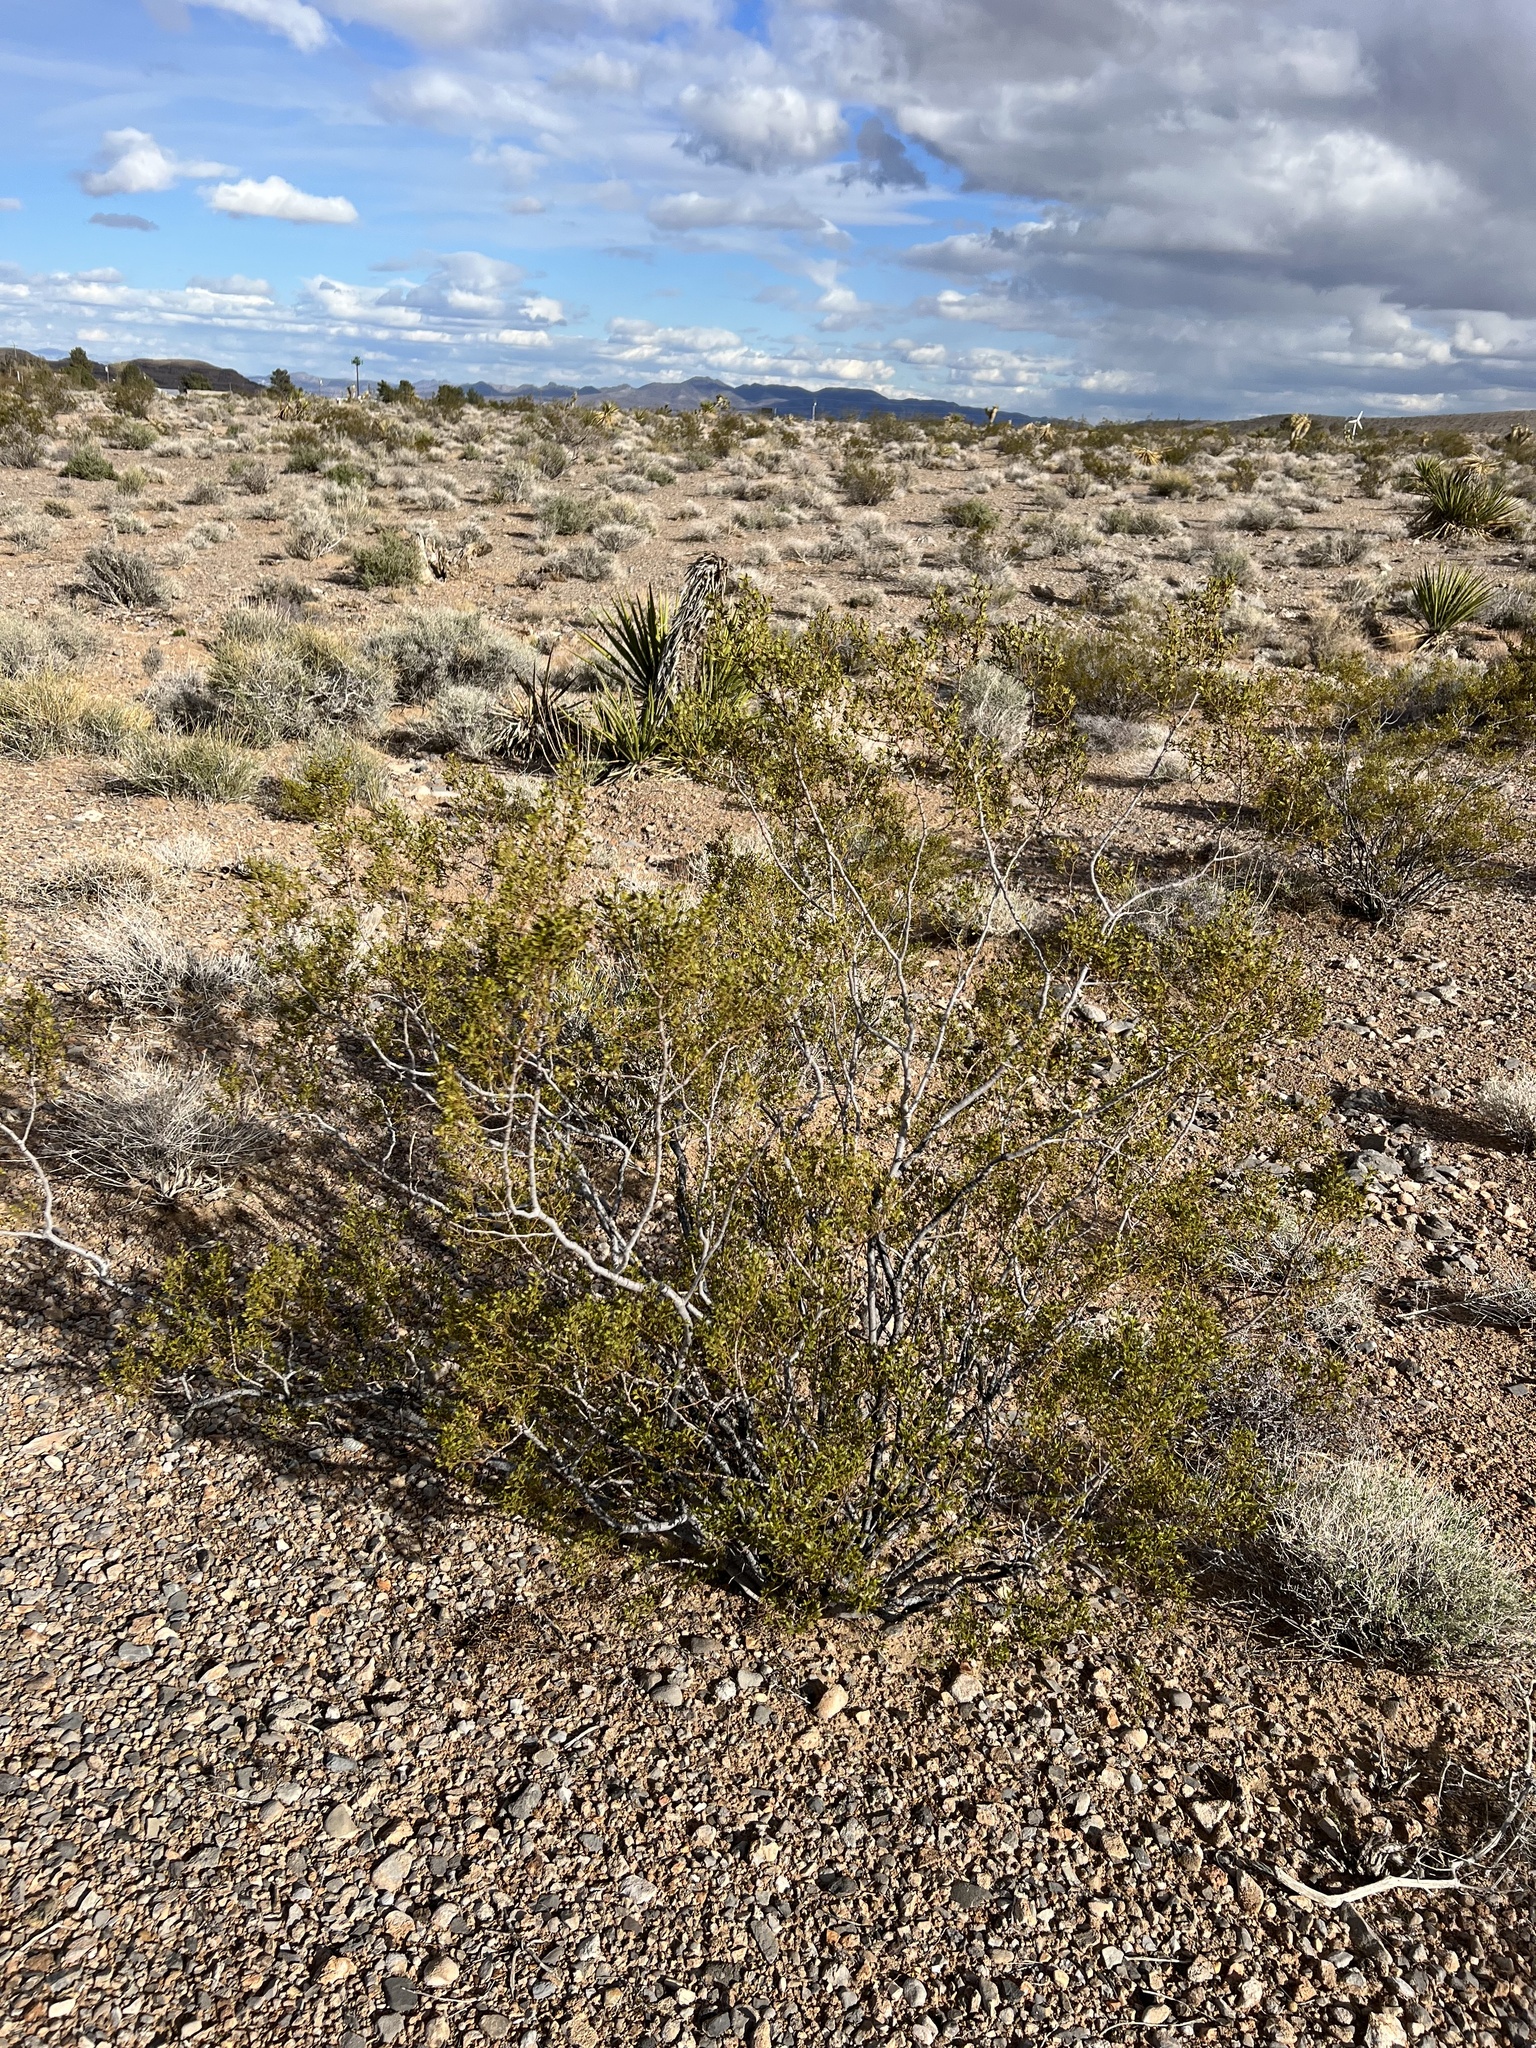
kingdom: Plantae
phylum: Tracheophyta
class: Magnoliopsida
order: Zygophyllales
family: Zygophyllaceae
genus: Larrea
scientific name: Larrea tridentata
